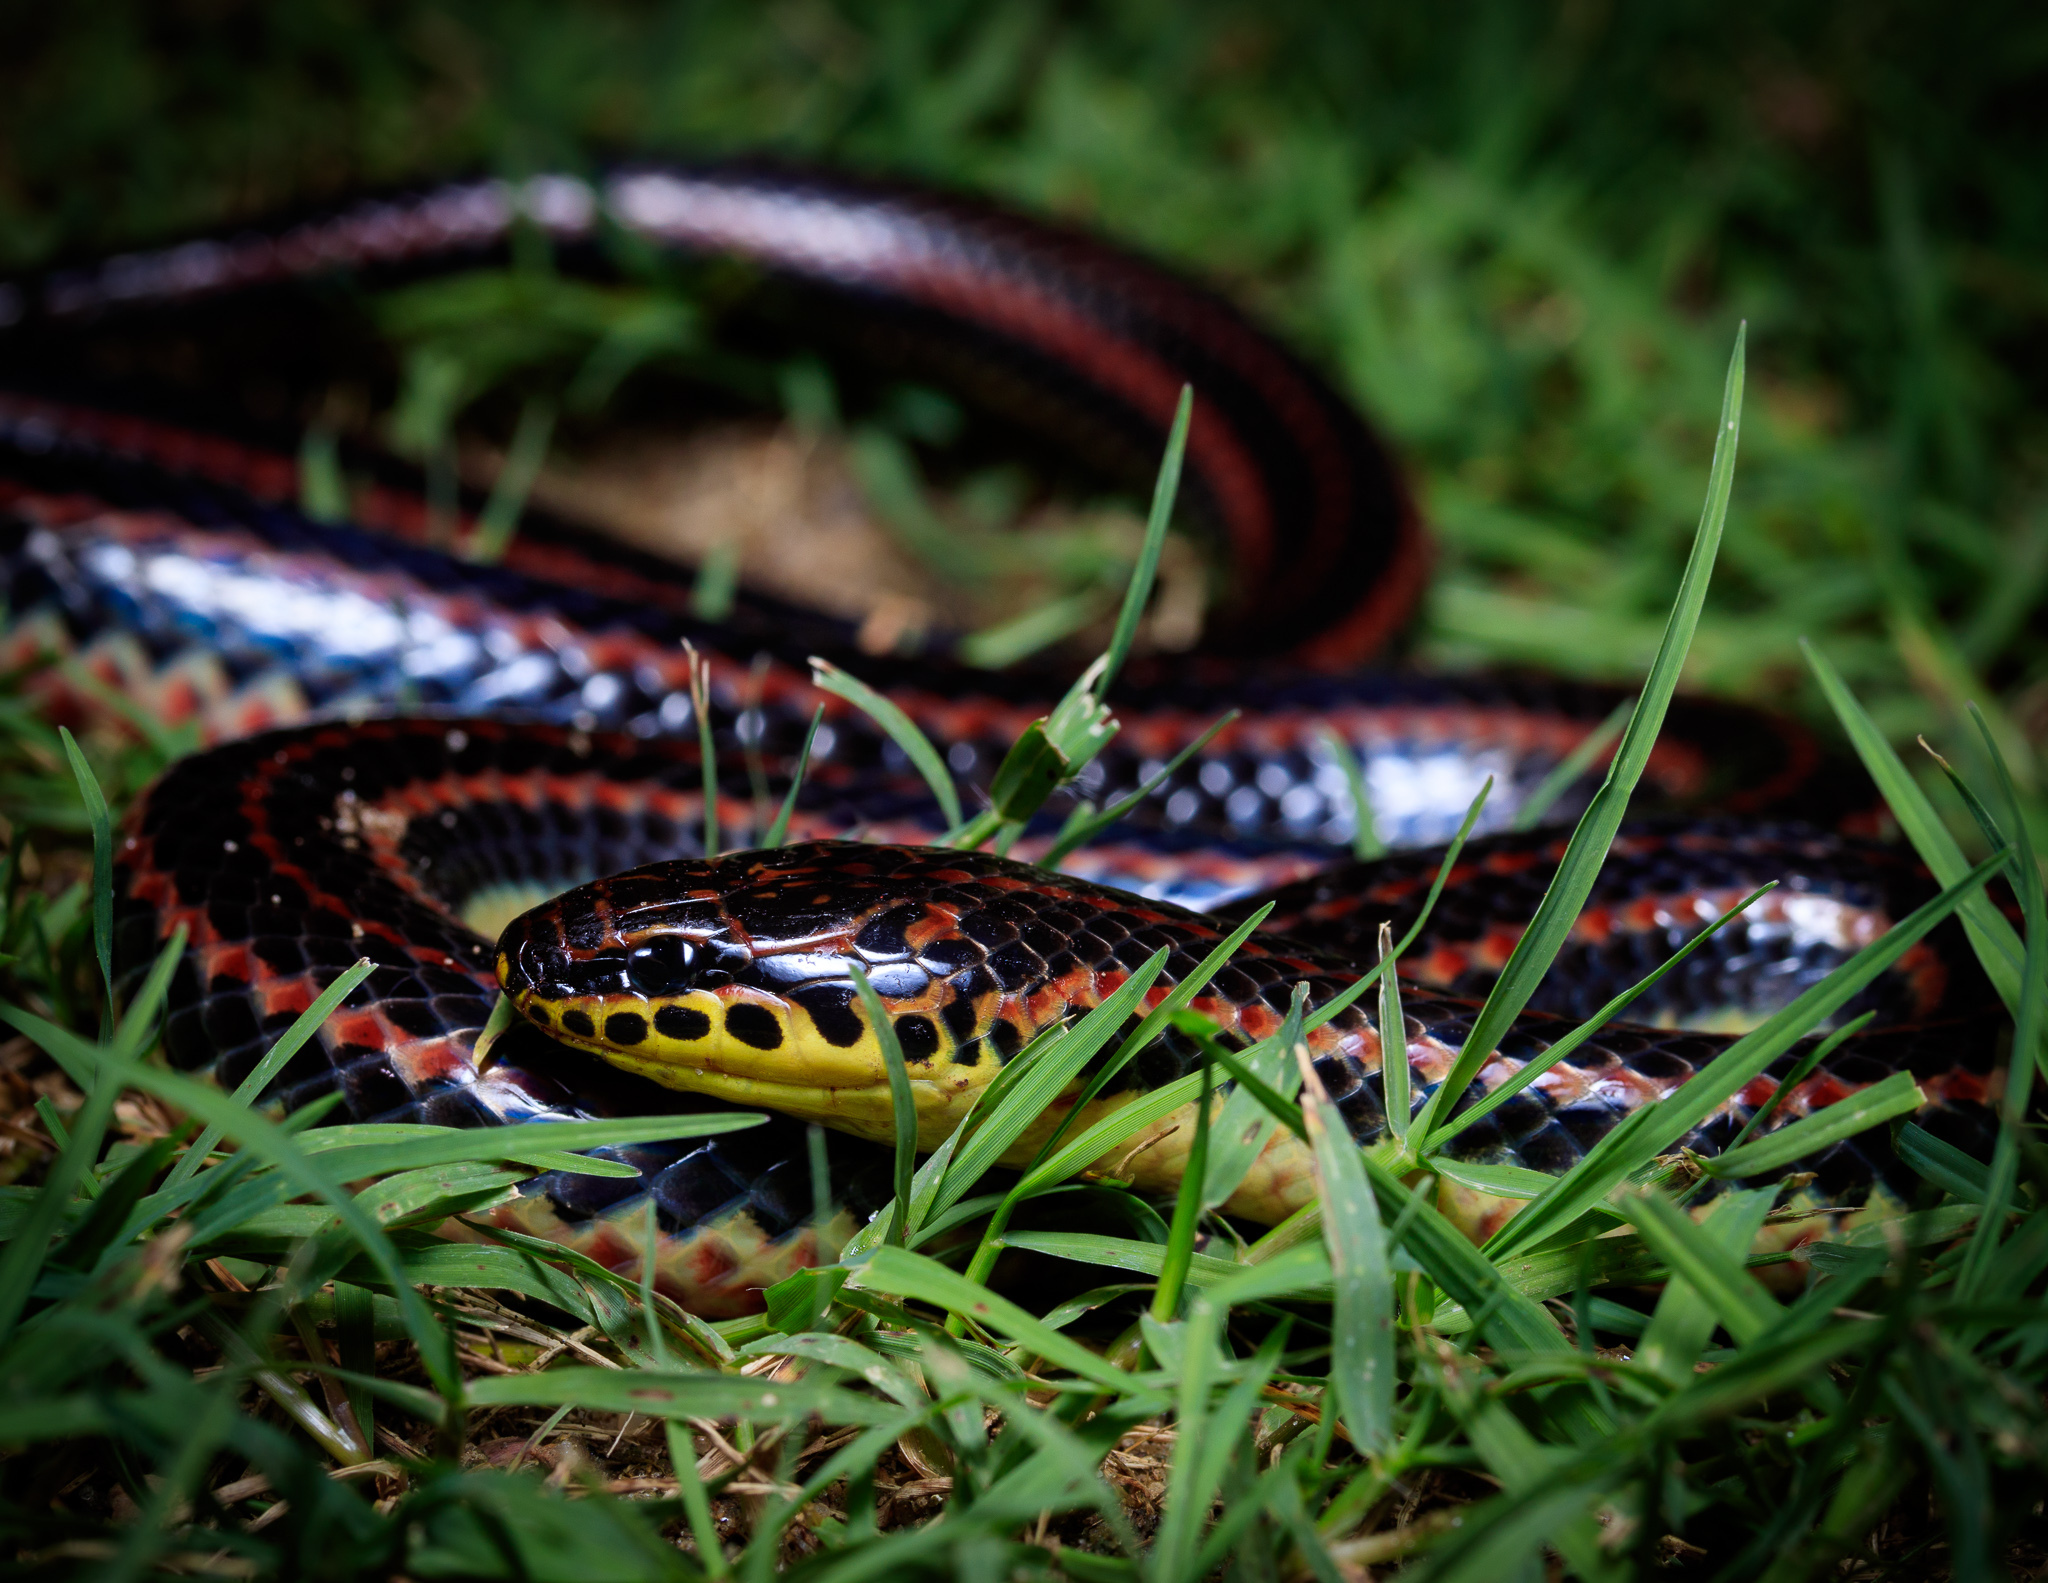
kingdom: Animalia
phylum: Chordata
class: Squamata
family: Colubridae
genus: Farancia
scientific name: Farancia erytrogramma
